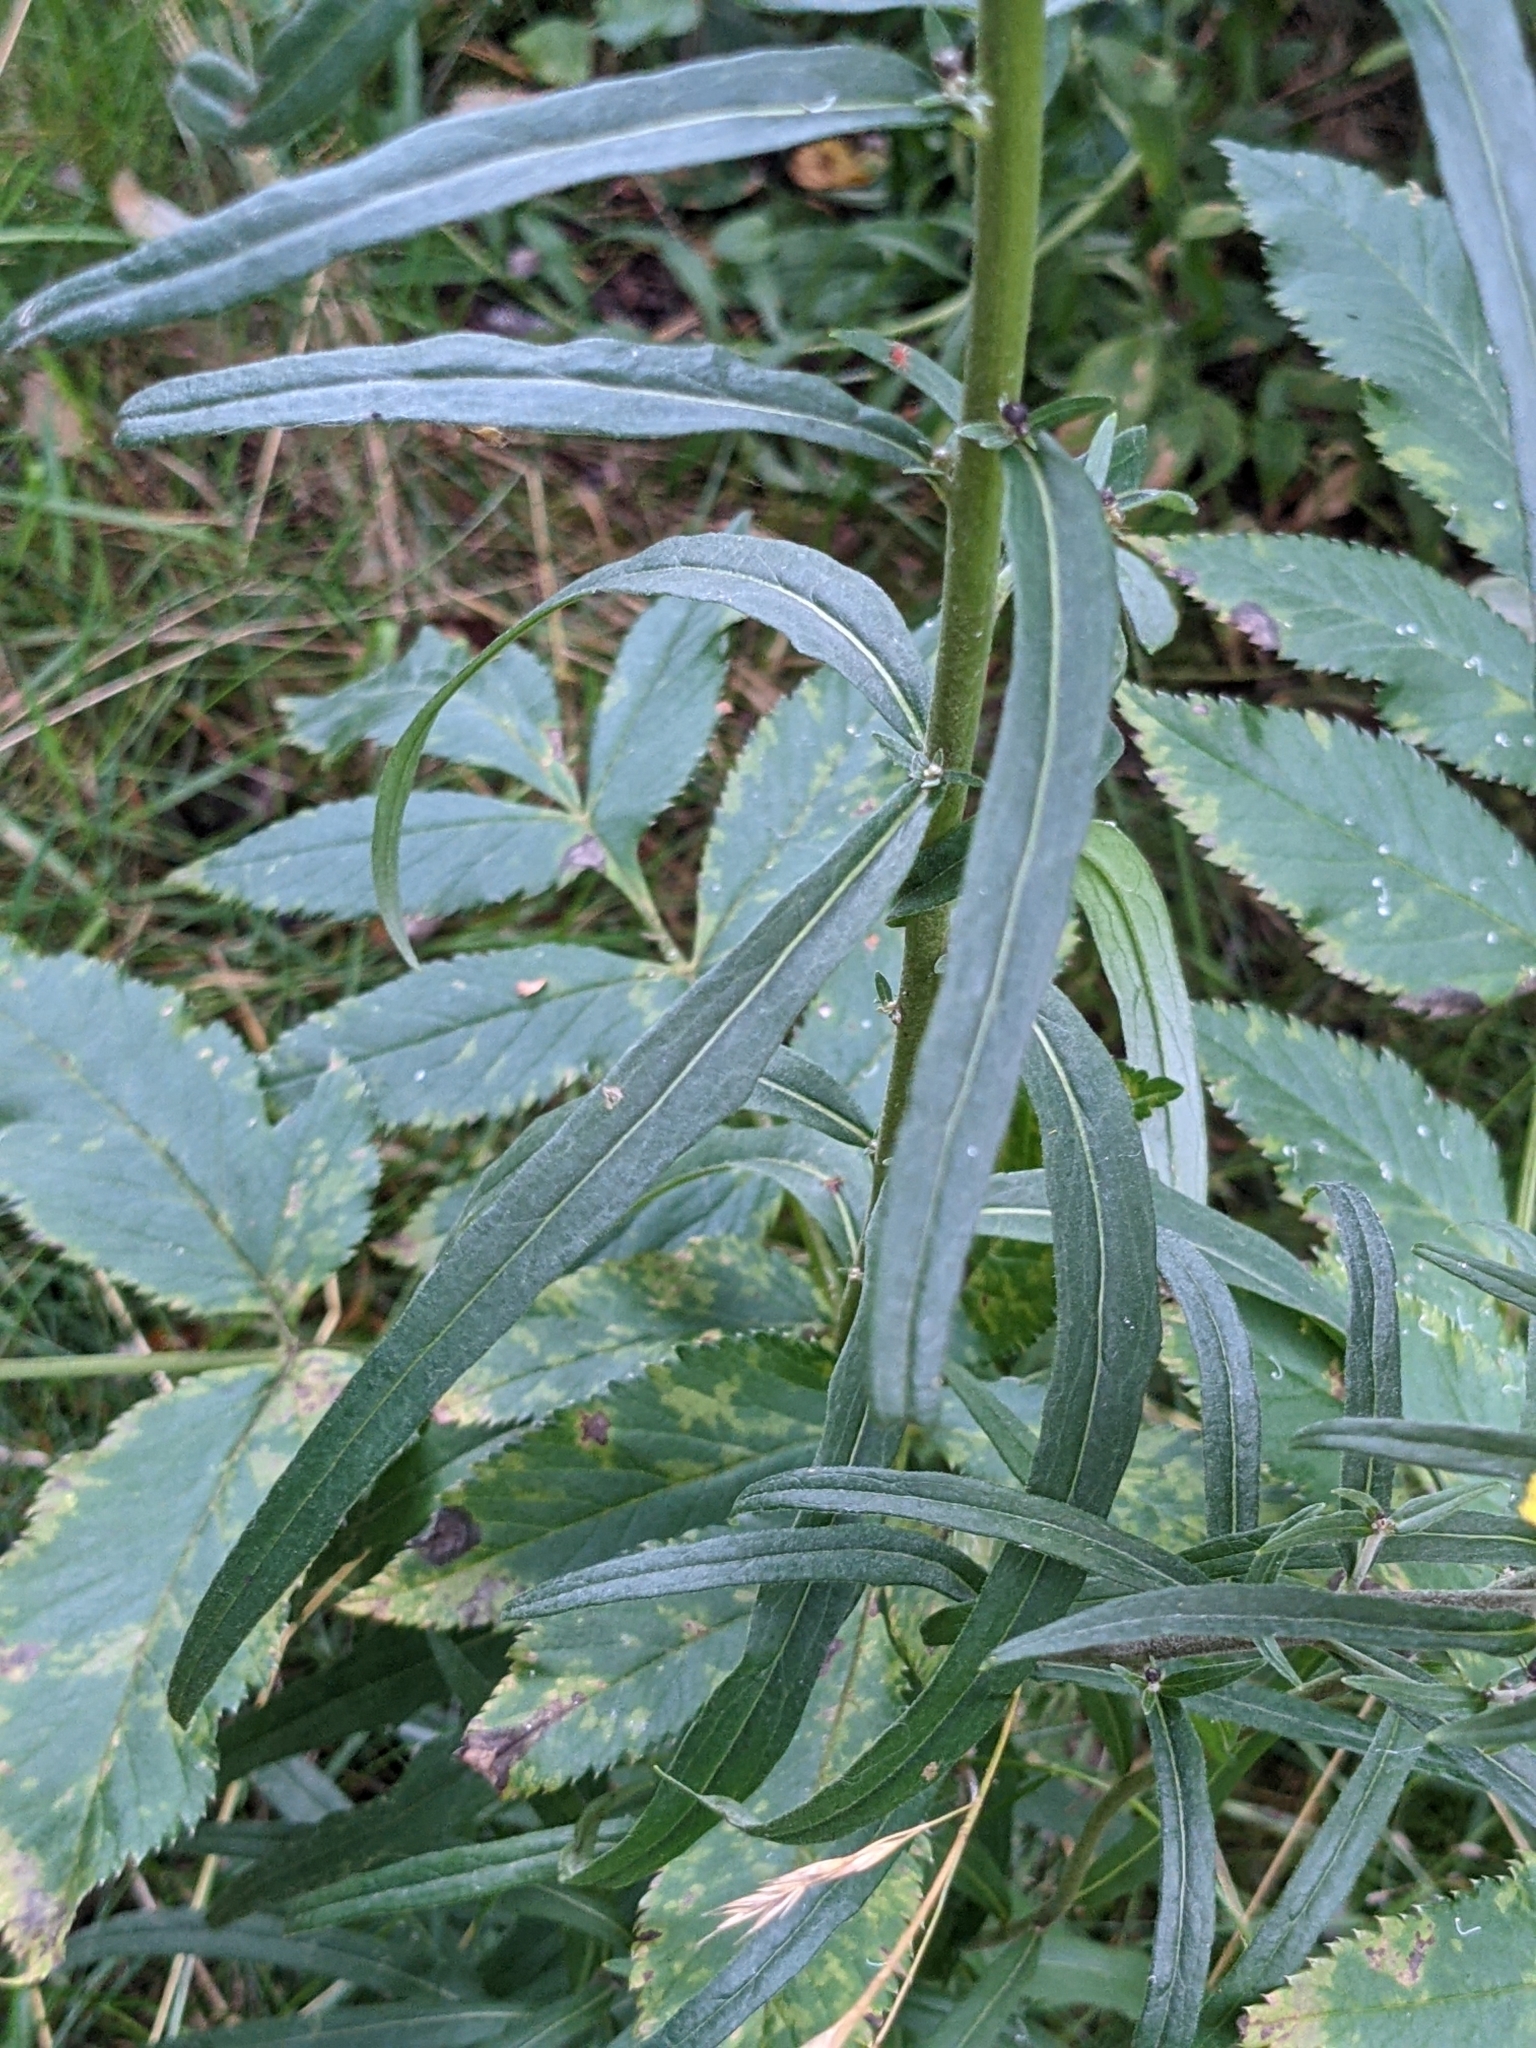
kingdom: Plantae
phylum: Tracheophyta
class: Magnoliopsida
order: Asterales
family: Asteraceae
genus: Hieracium
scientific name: Hieracium umbellatum
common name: Northern hawkweed
